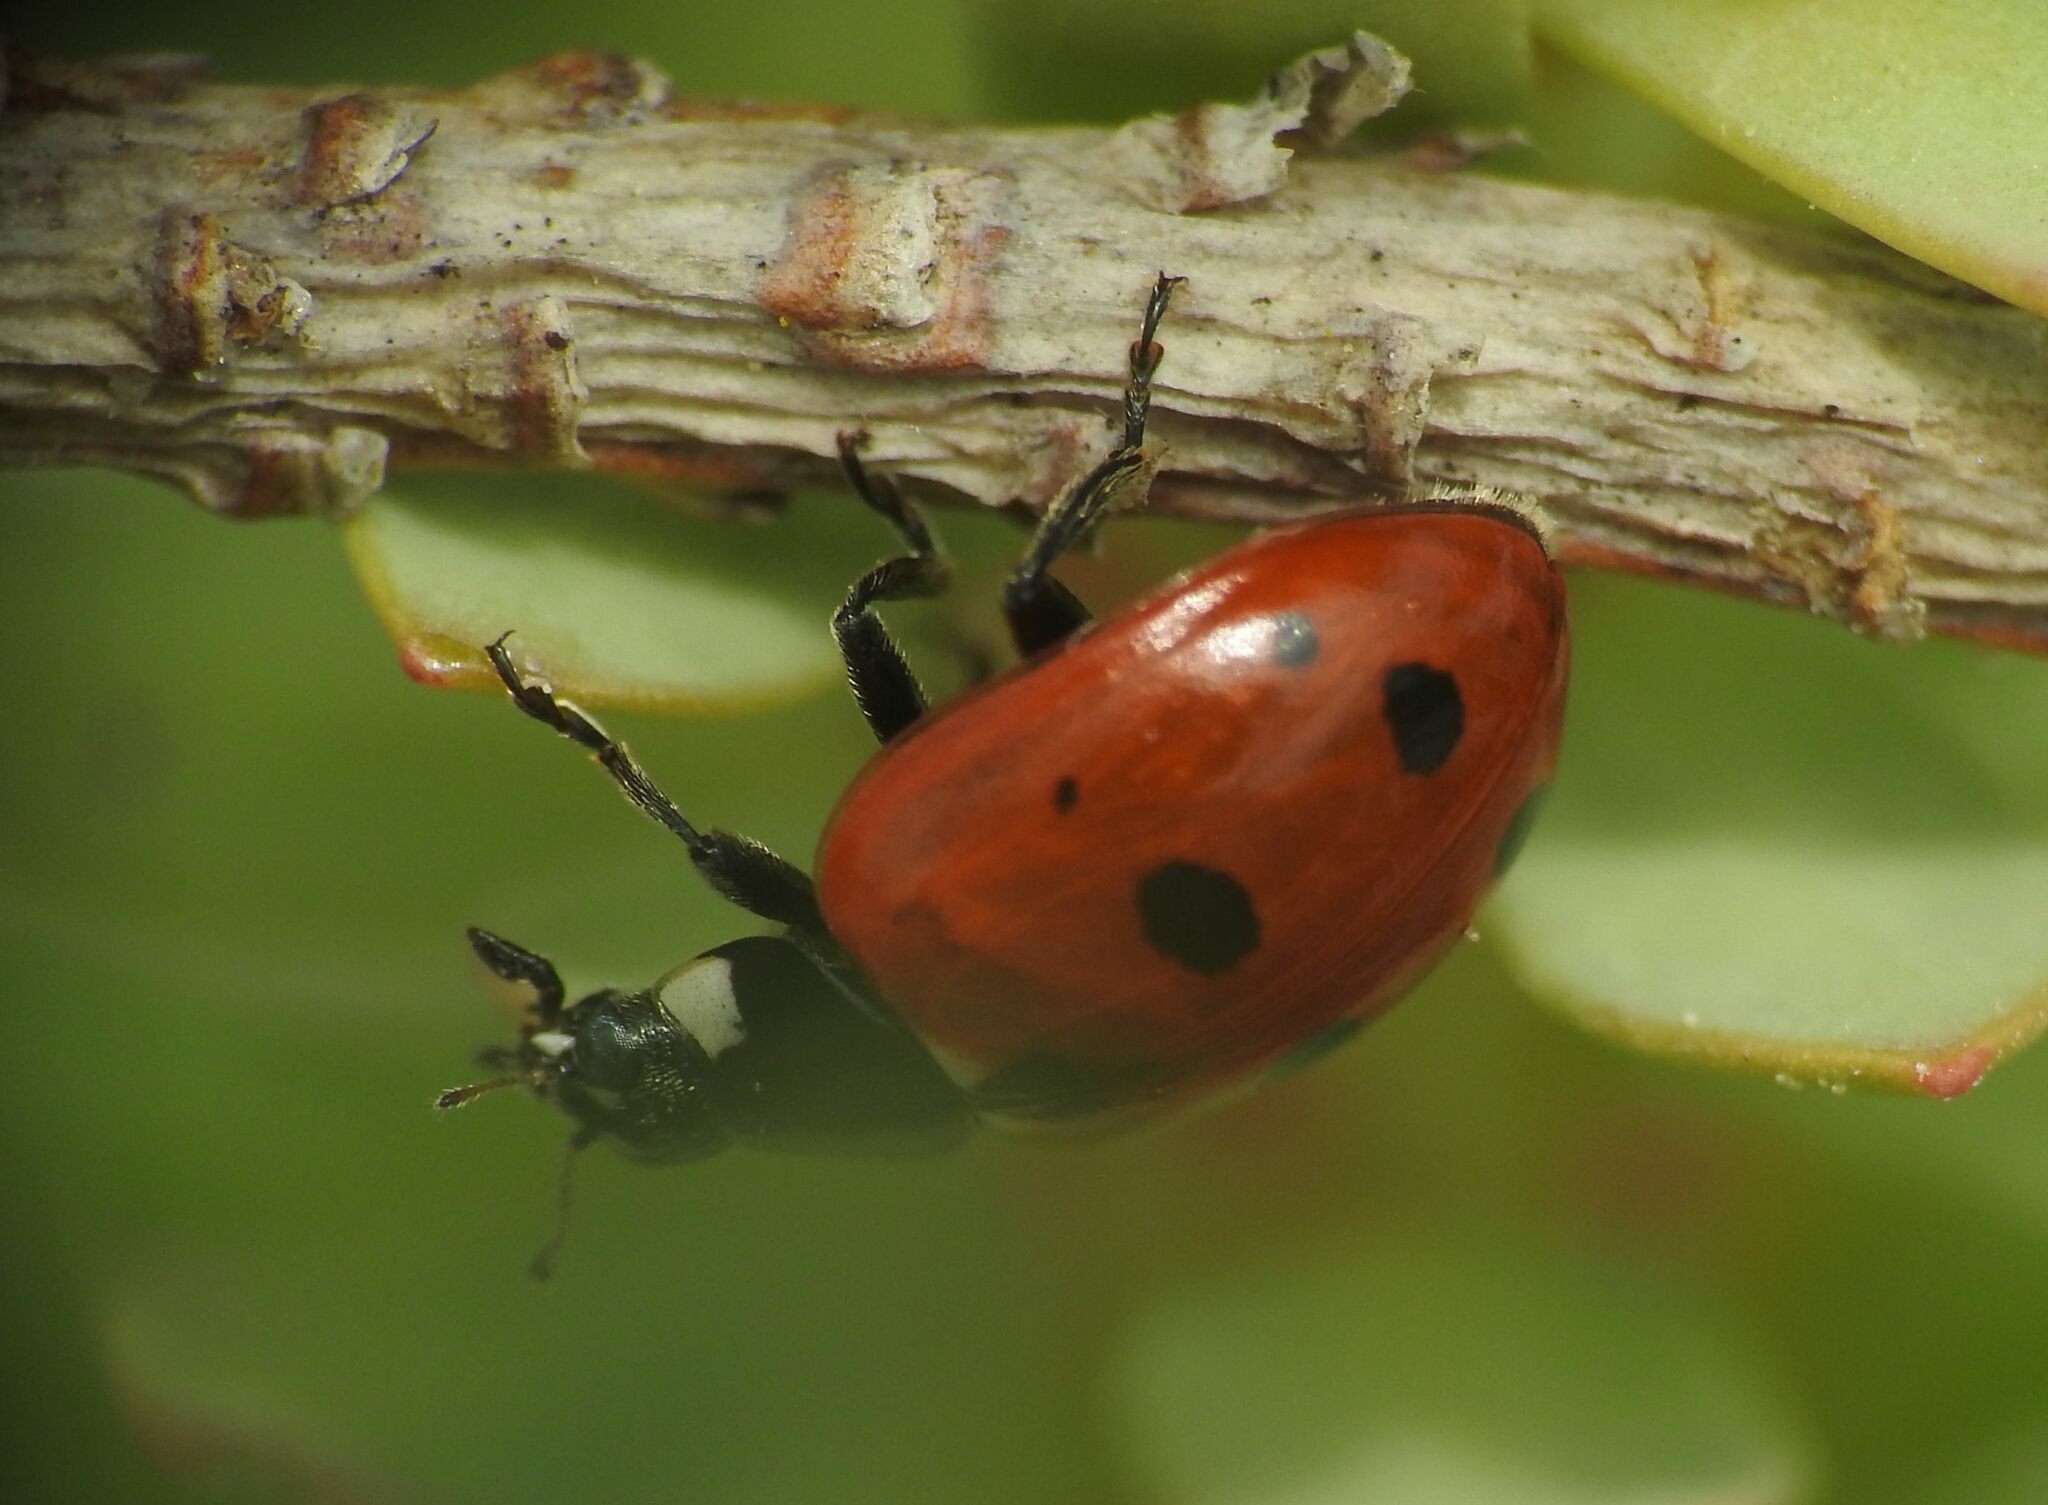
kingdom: Animalia
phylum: Arthropoda
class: Insecta
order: Coleoptera
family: Coccinellidae
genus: Coccinella
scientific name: Coccinella undecimpunctata
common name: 11-spot ladybird
